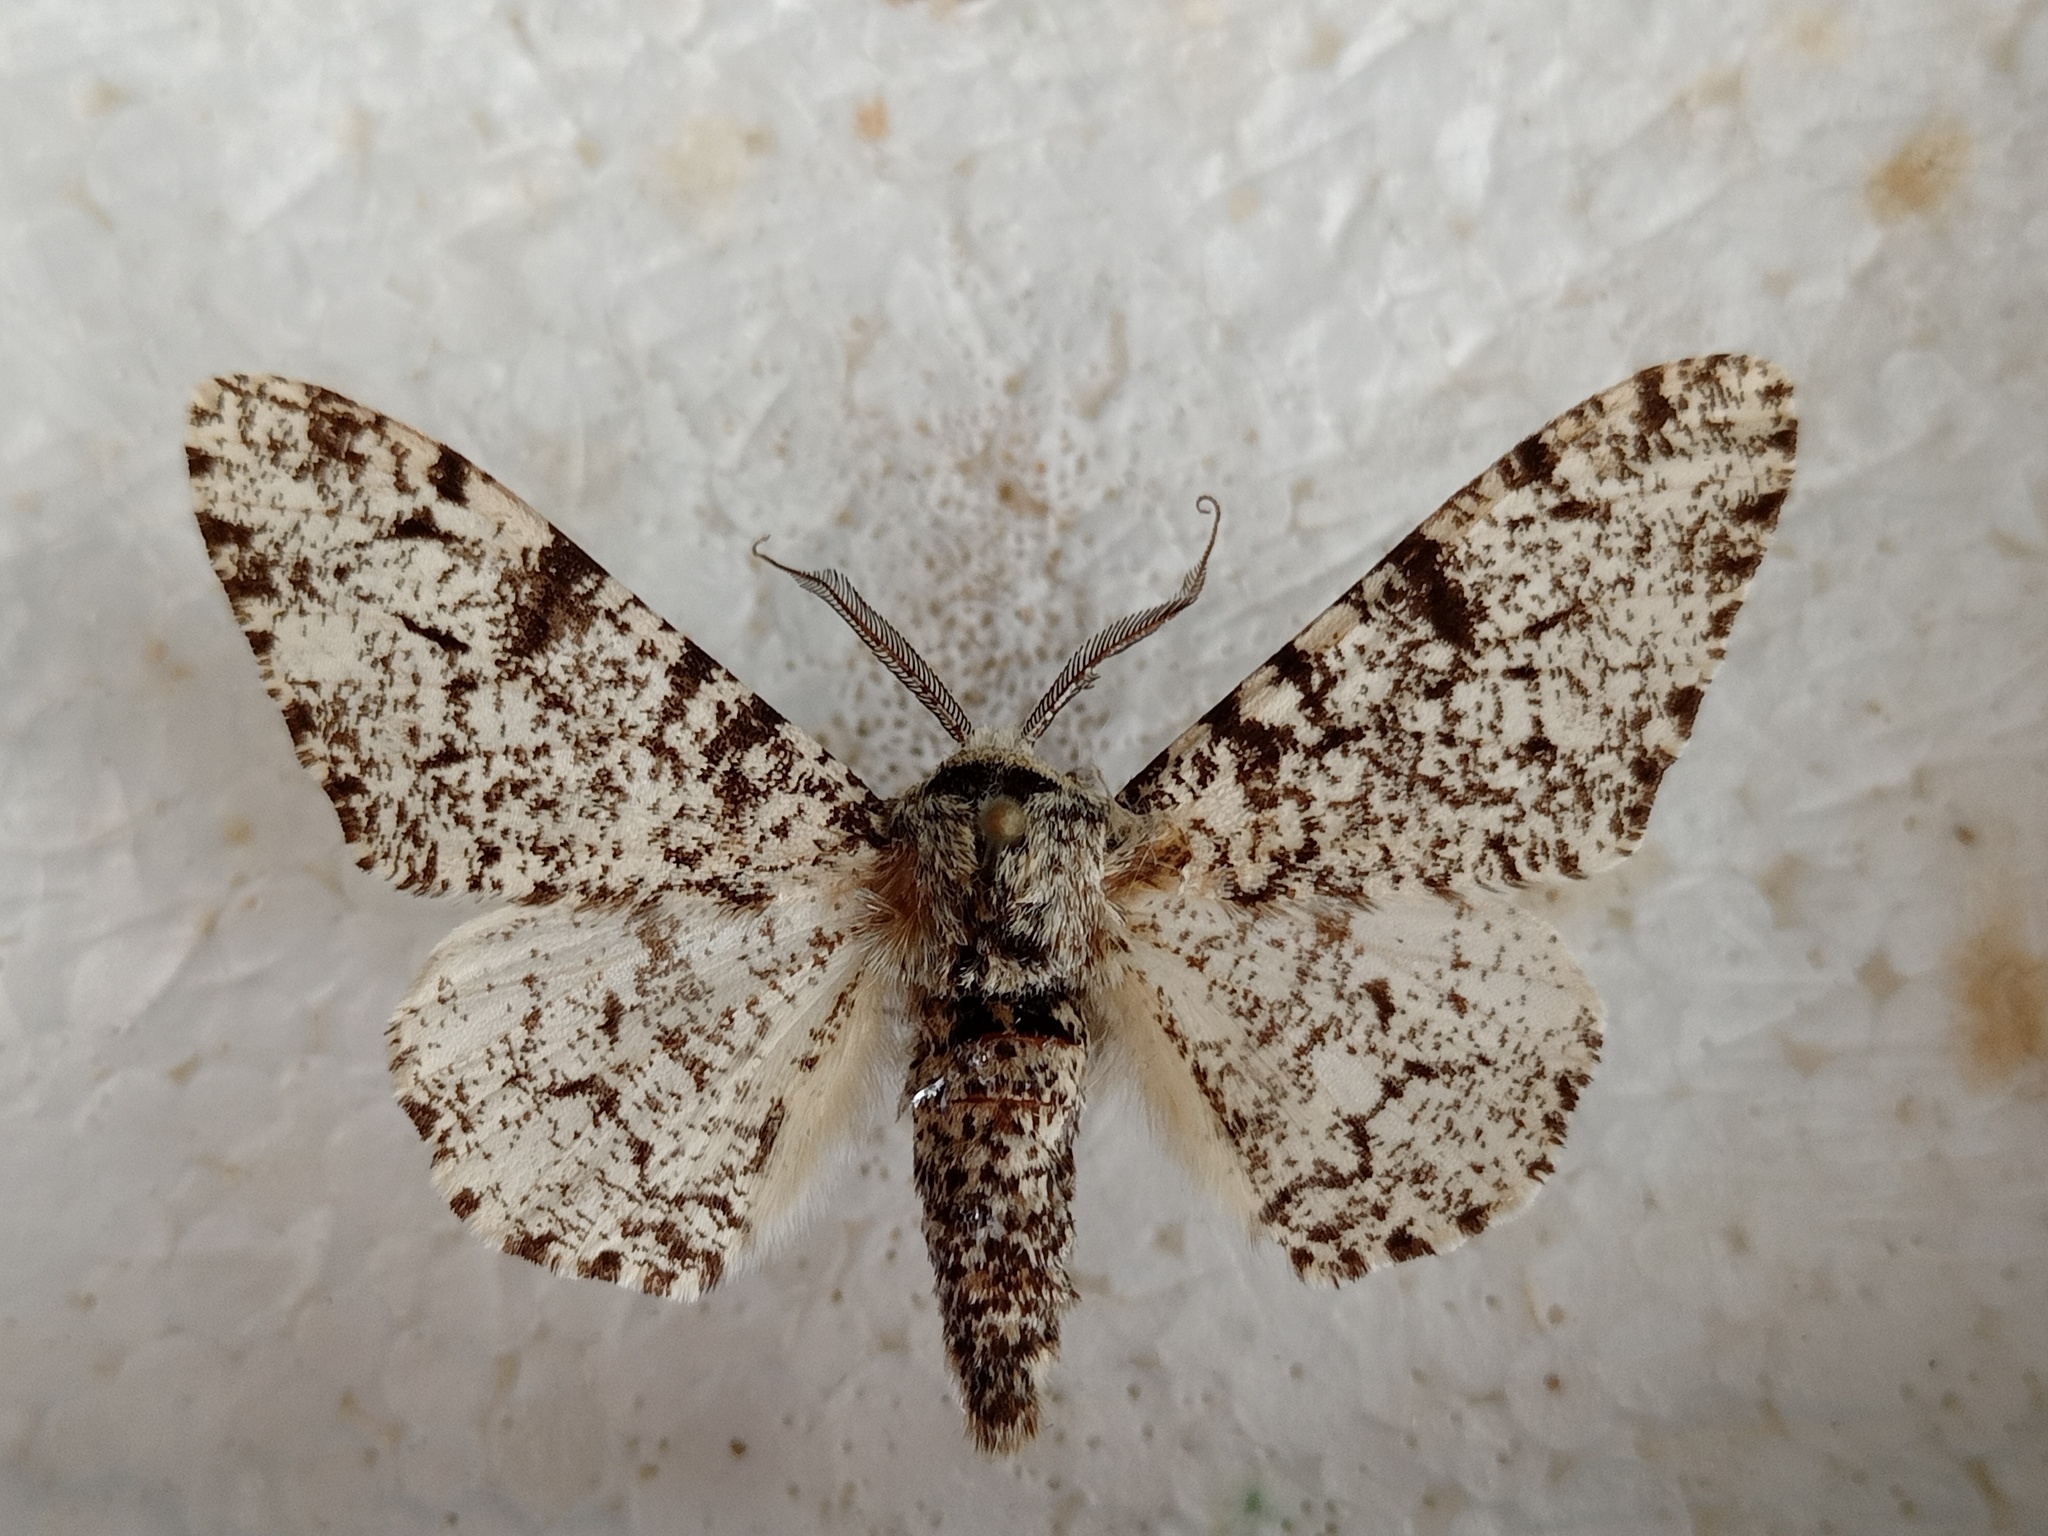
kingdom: Animalia
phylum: Arthropoda
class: Insecta
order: Lepidoptera
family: Geometridae
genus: Biston
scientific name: Biston betularia
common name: Peppered moth
